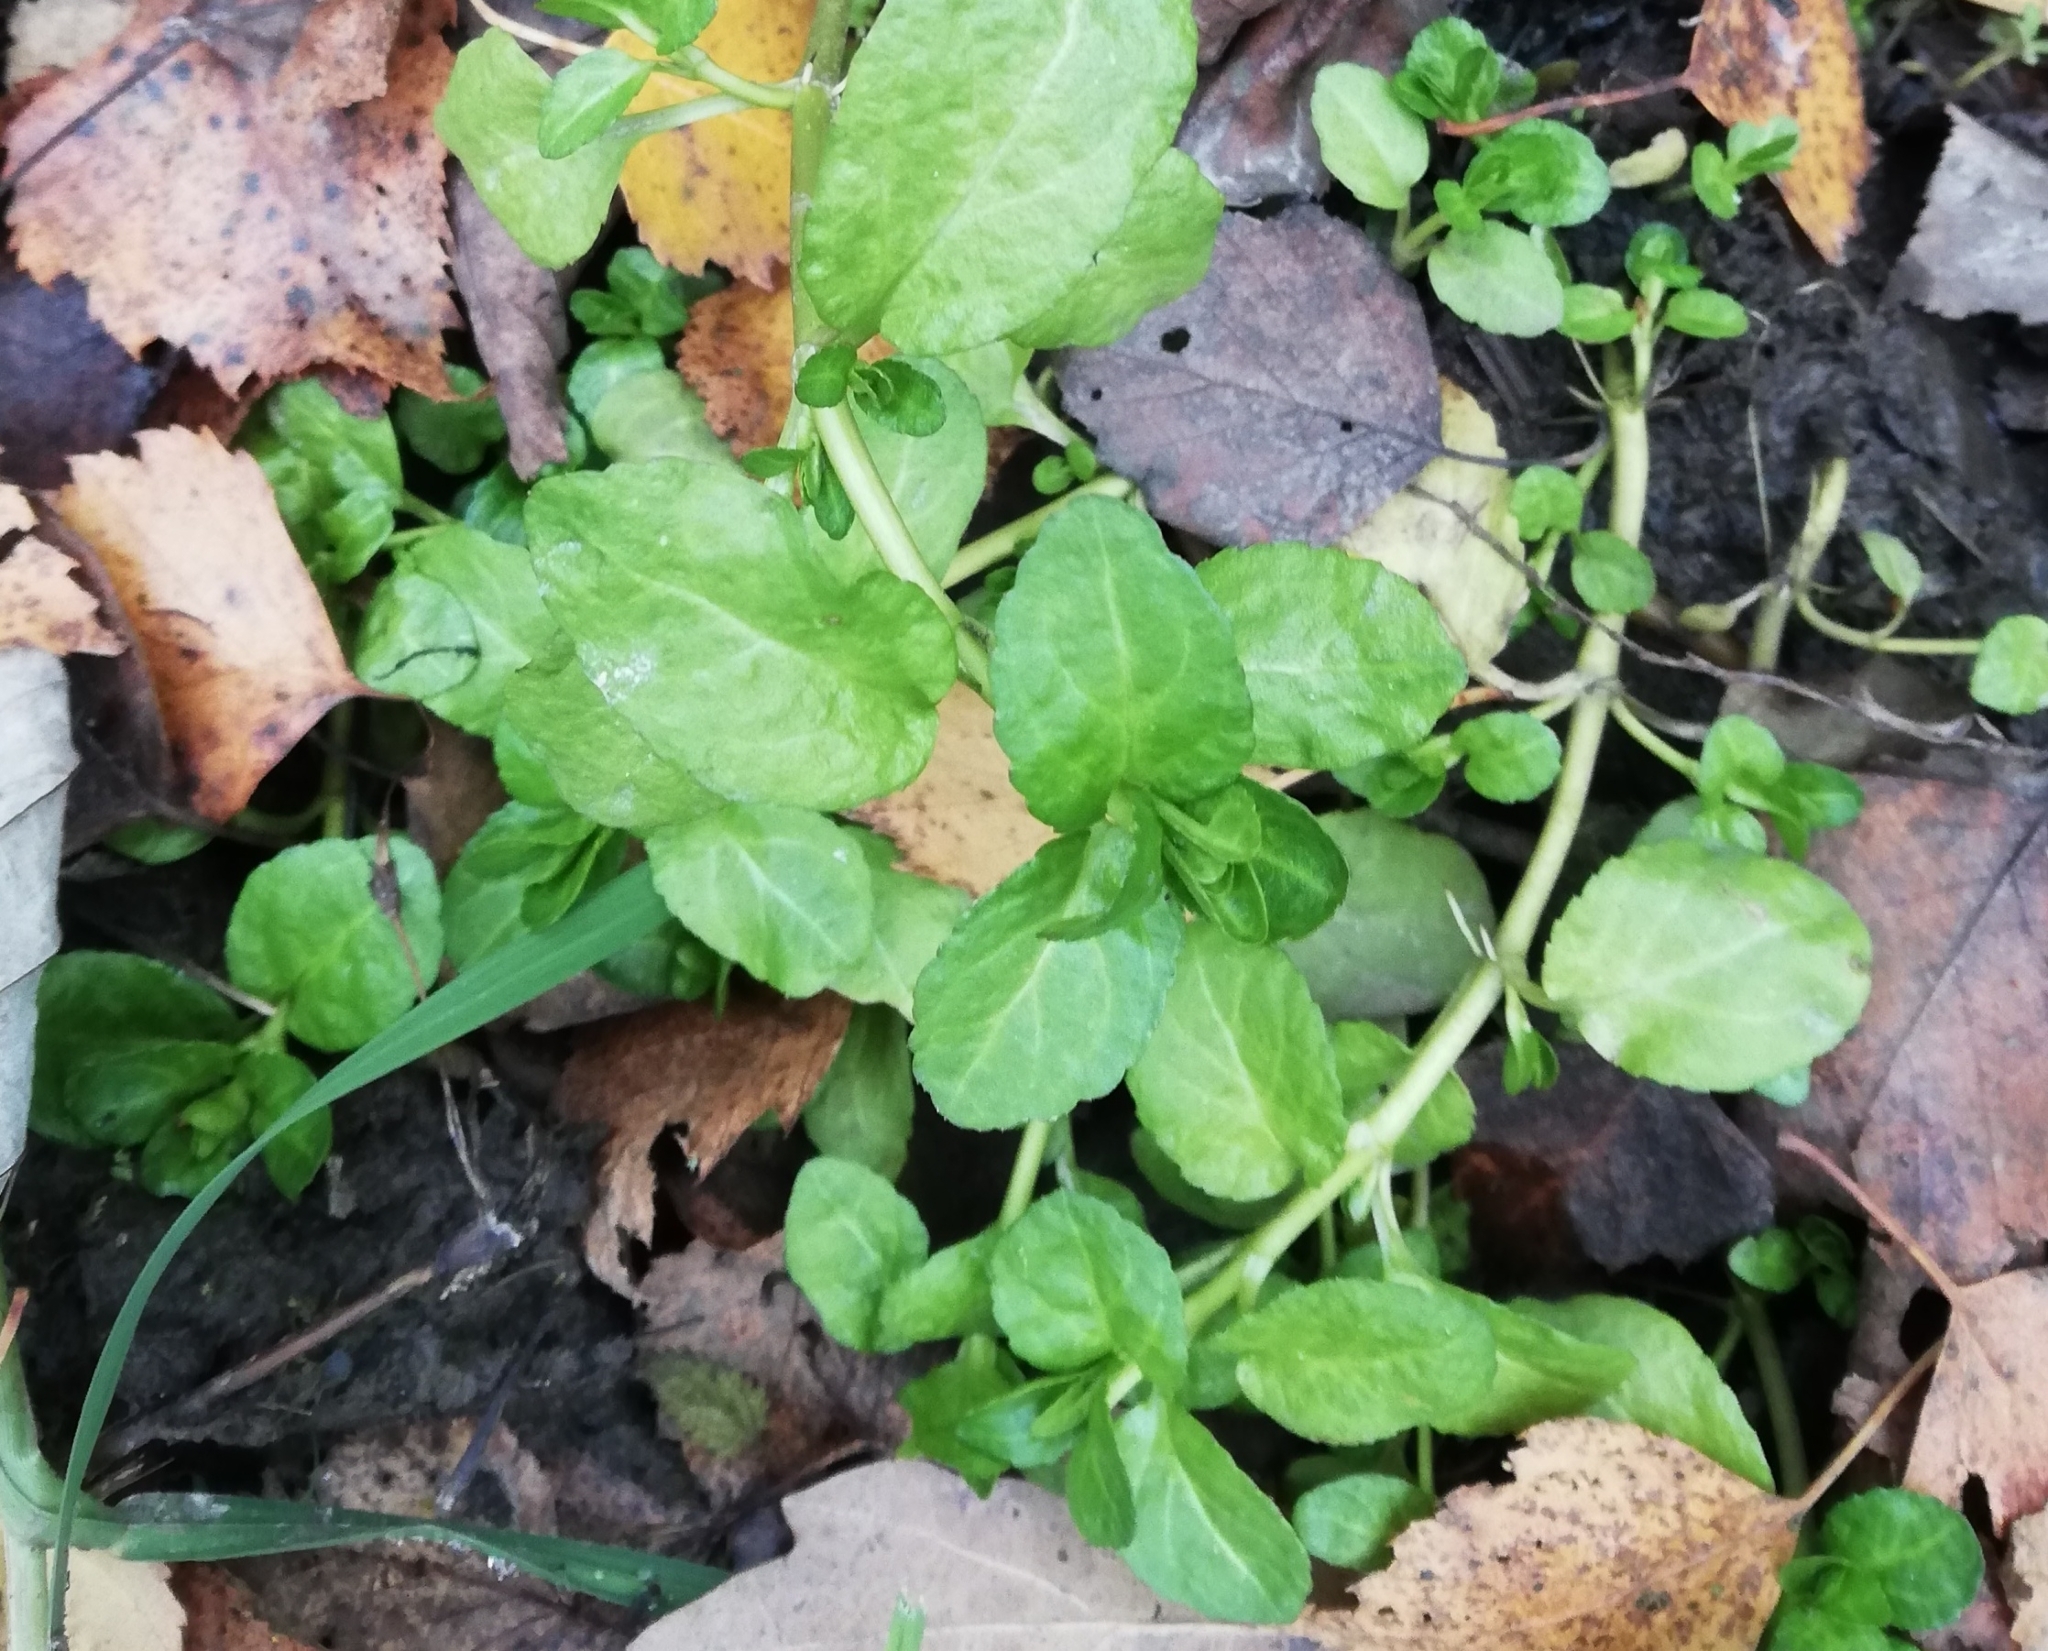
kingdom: Plantae
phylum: Tracheophyta
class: Magnoliopsida
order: Lamiales
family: Plantaginaceae
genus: Veronica
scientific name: Veronica beccabunga
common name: Brooklime
